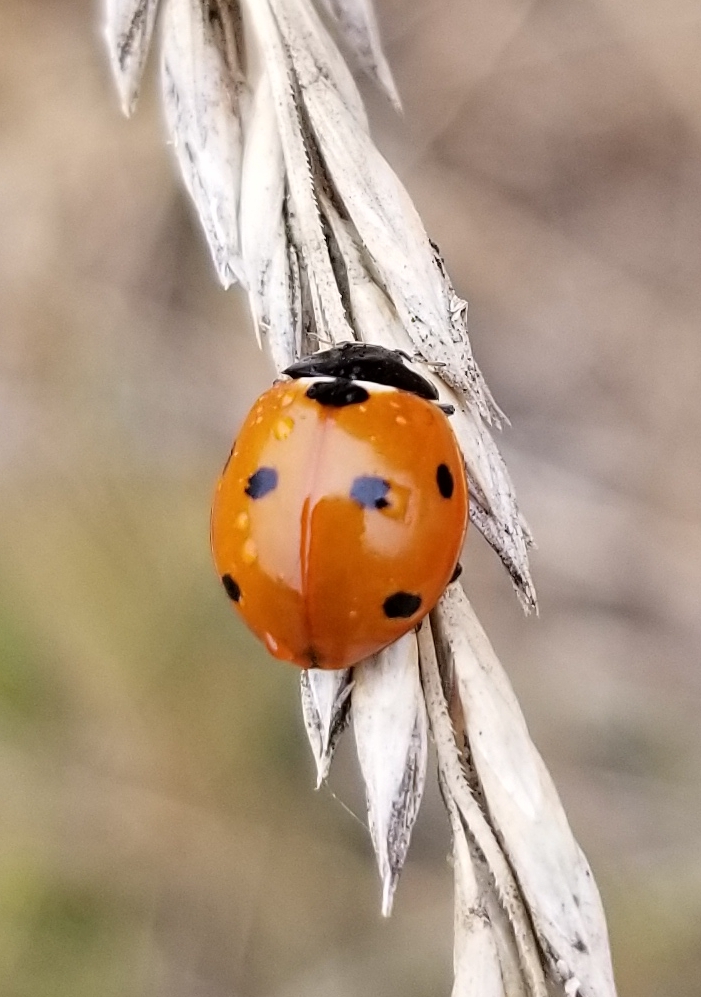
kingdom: Animalia
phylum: Arthropoda
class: Insecta
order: Coleoptera
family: Coccinellidae
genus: Coccinella
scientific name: Coccinella septempunctata
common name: Sevenspotted lady beetle
